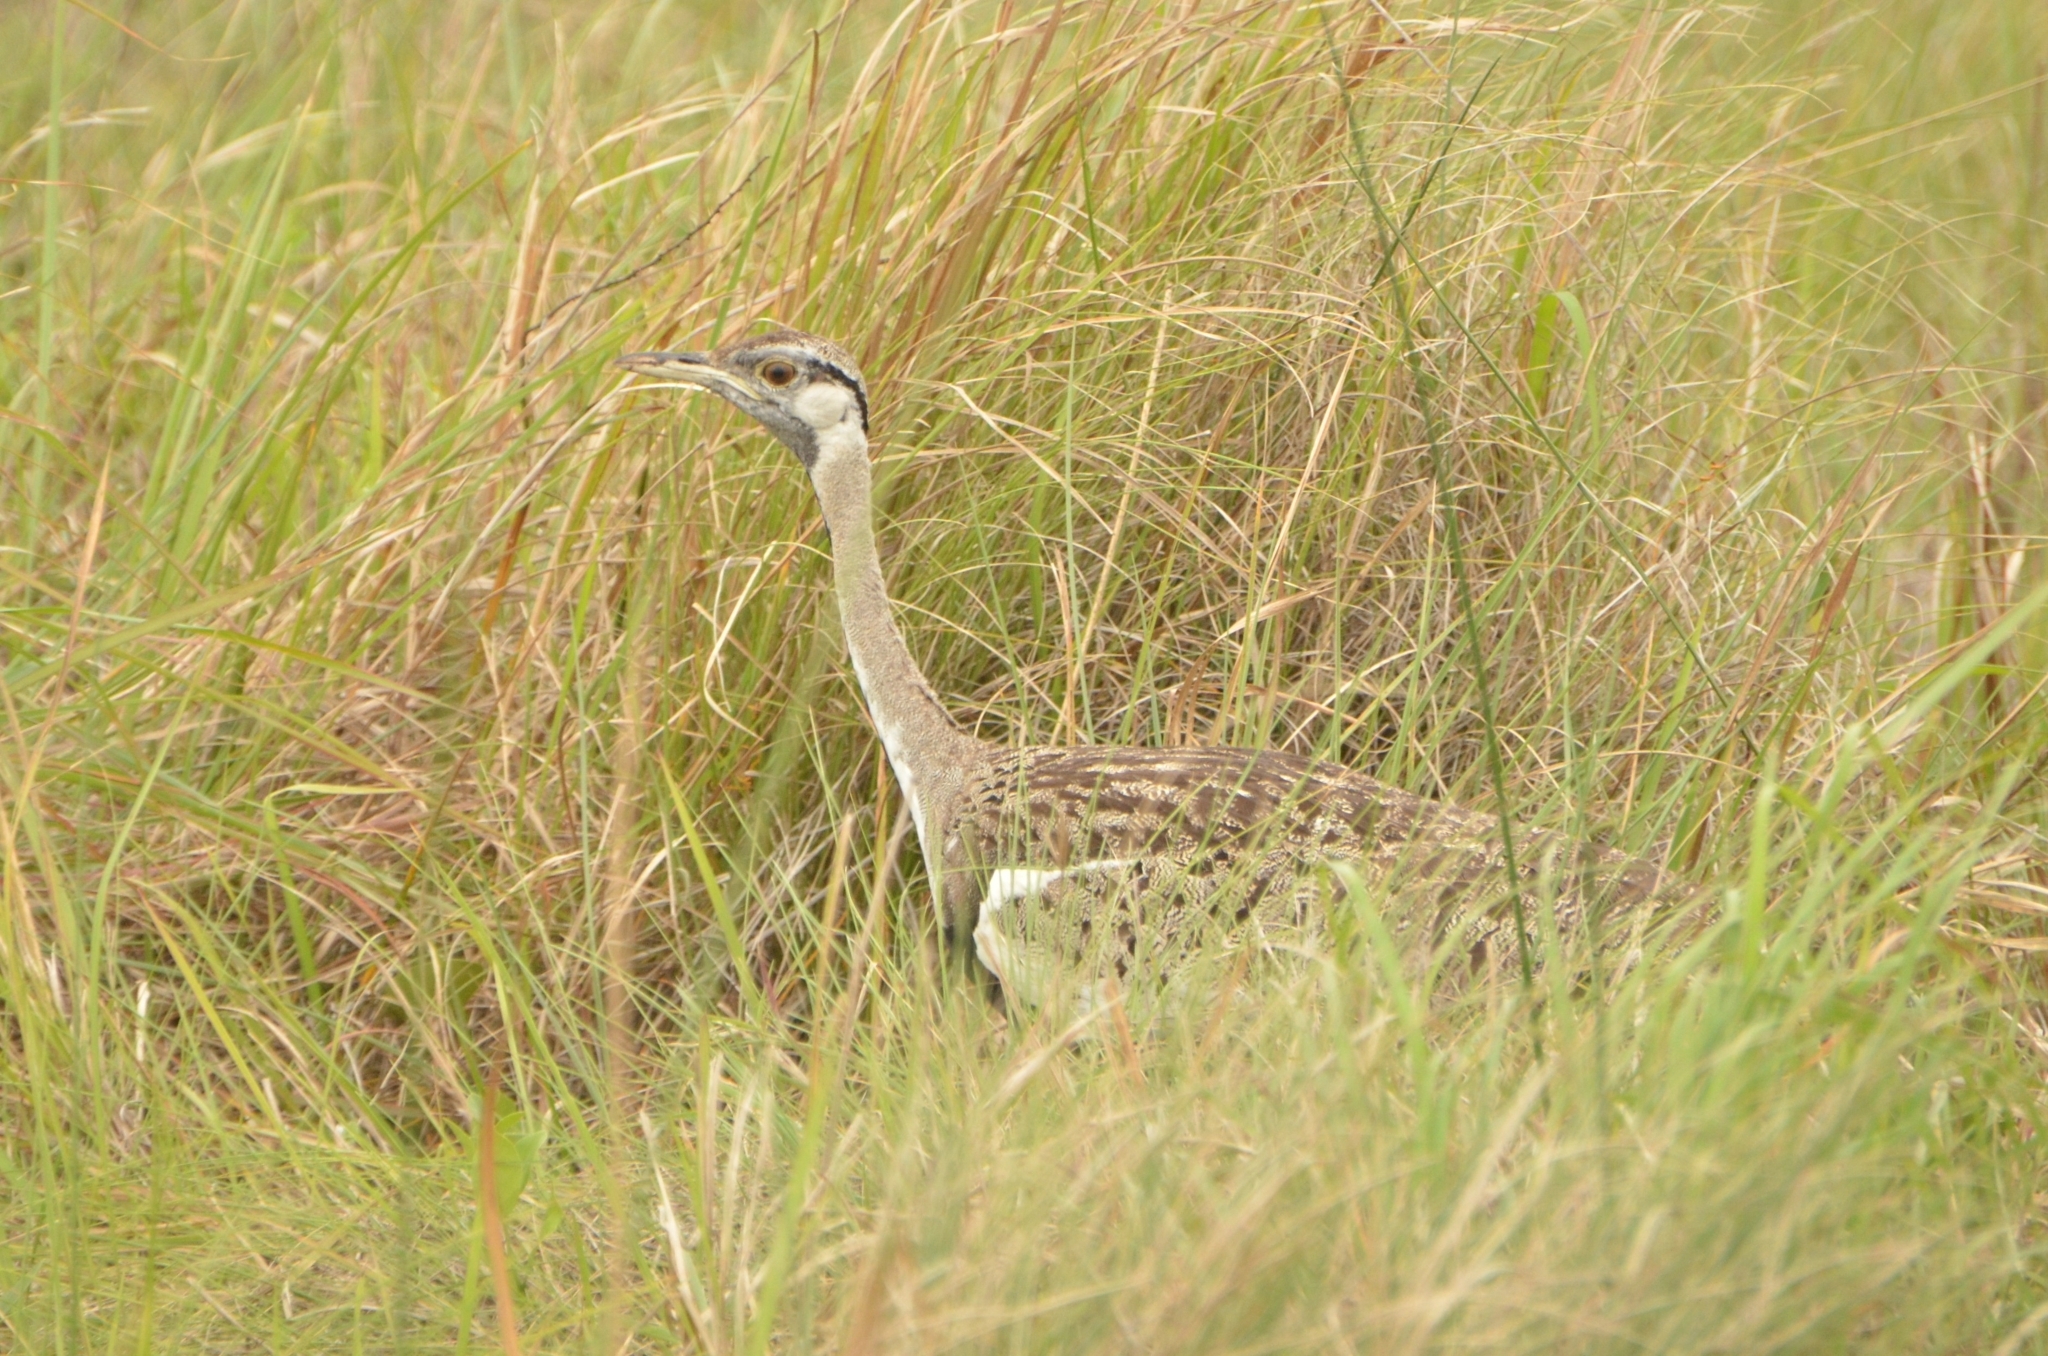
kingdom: Animalia
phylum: Chordata
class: Aves
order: Otidiformes
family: Otididae
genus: Lissotis
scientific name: Lissotis melanogaster
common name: Black-bellied bustard
